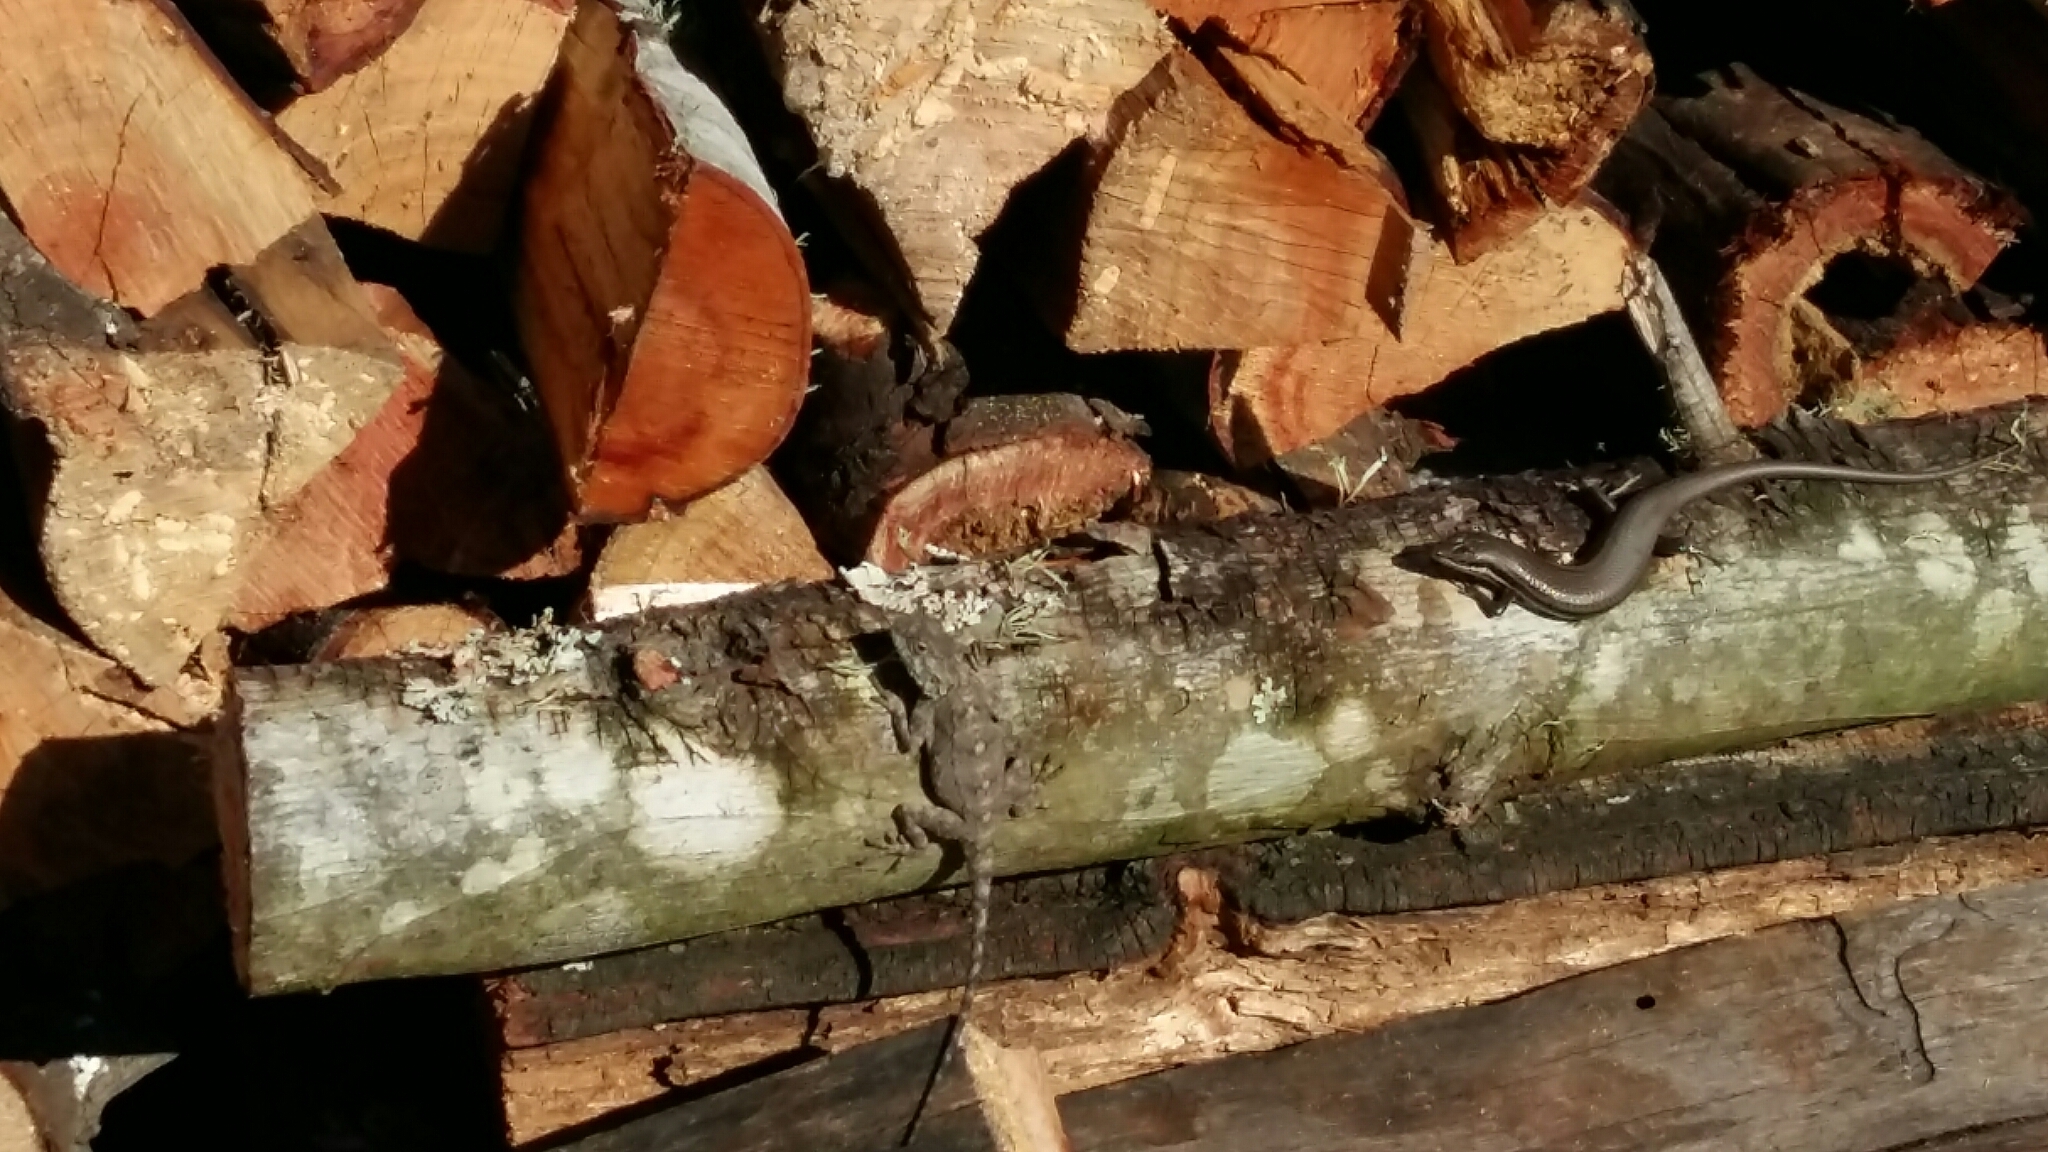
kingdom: Animalia
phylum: Chordata
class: Squamata
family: Scincidae
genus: Trachylepis
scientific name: Trachylepis homalocephala
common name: Red-sided skink
